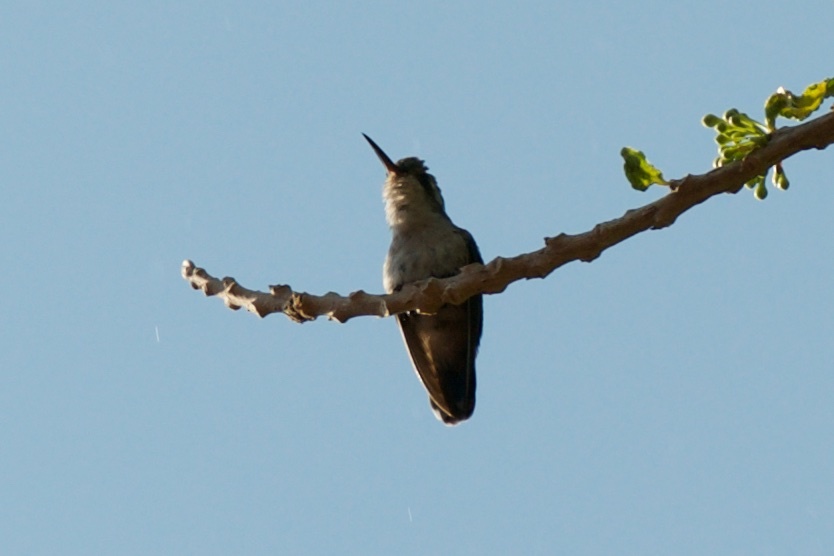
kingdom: Animalia
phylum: Chordata
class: Aves
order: Apodiformes
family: Trochilidae
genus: Cynanthus
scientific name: Cynanthus canivetii
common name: Canivet's emerald
